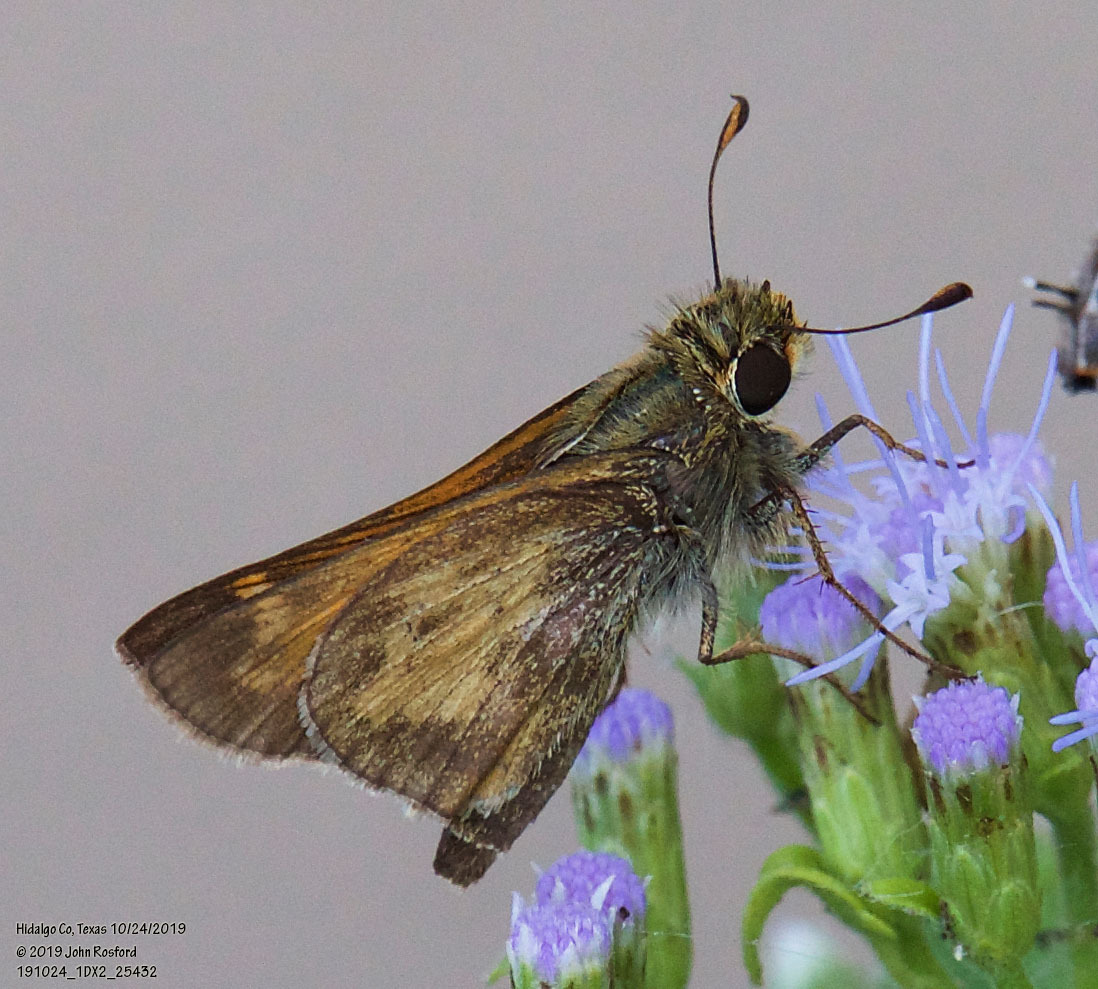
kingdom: Animalia
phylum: Arthropoda
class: Insecta
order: Lepidoptera
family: Hesperiidae
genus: Atalopedes
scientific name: Atalopedes
